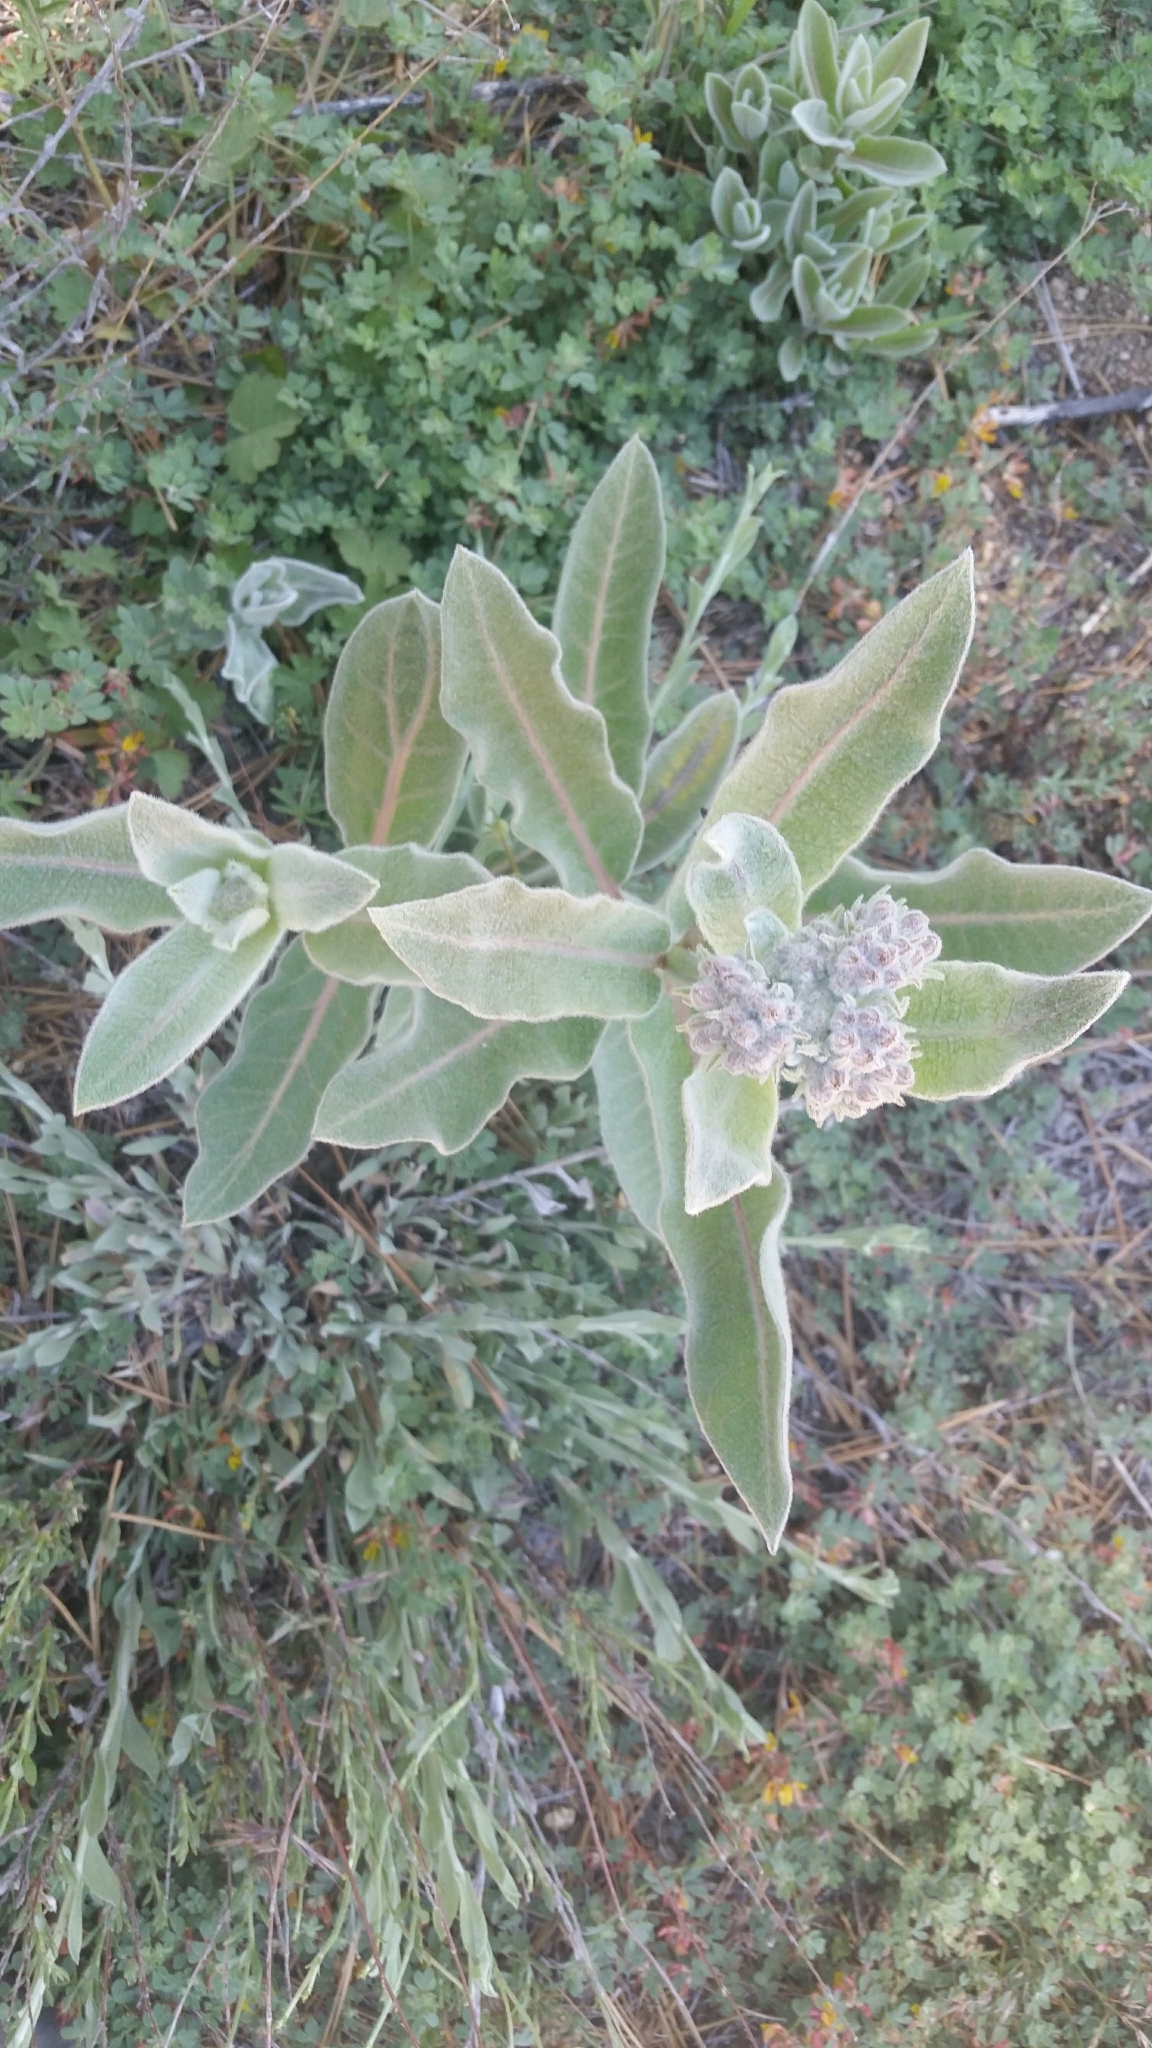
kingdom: Plantae
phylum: Tracheophyta
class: Magnoliopsida
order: Gentianales
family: Apocynaceae
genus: Asclepias
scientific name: Asclepias eriocarpa
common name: Indian milkweed
